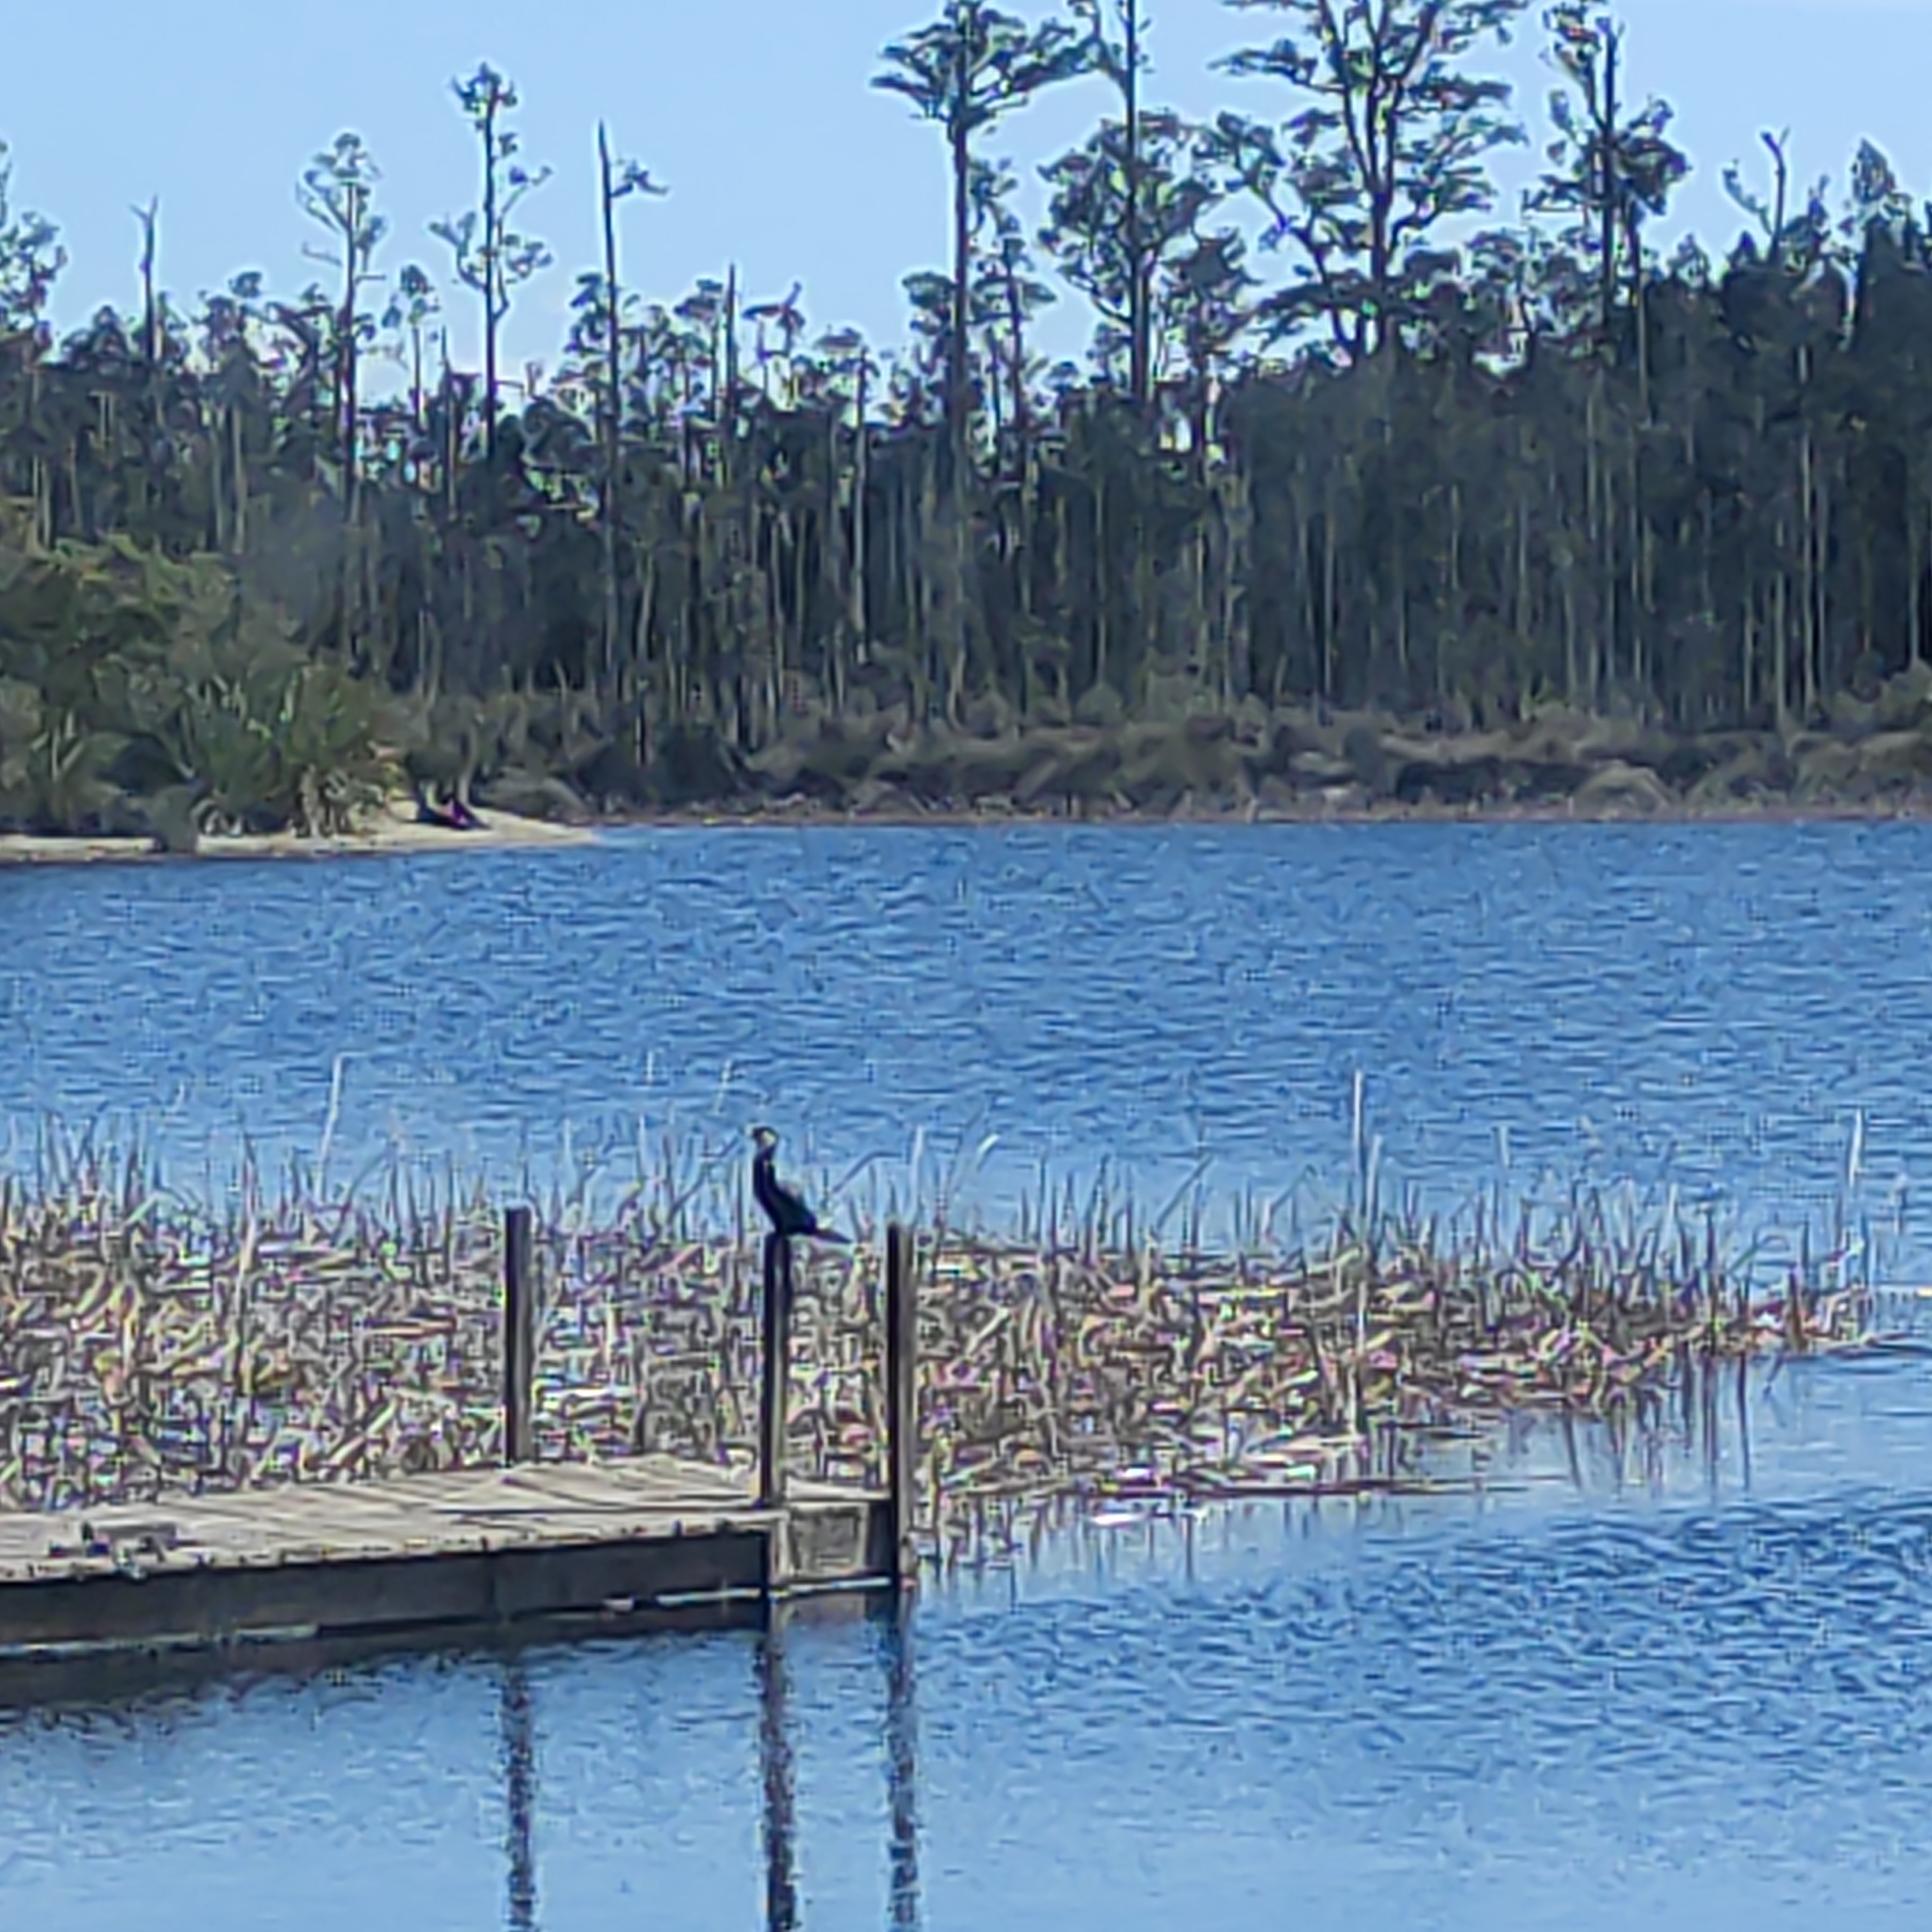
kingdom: Animalia
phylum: Chordata
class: Aves
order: Suliformes
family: Phalacrocoracidae
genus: Microcarbo
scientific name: Microcarbo melanoleucos
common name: Little pied cormorant
